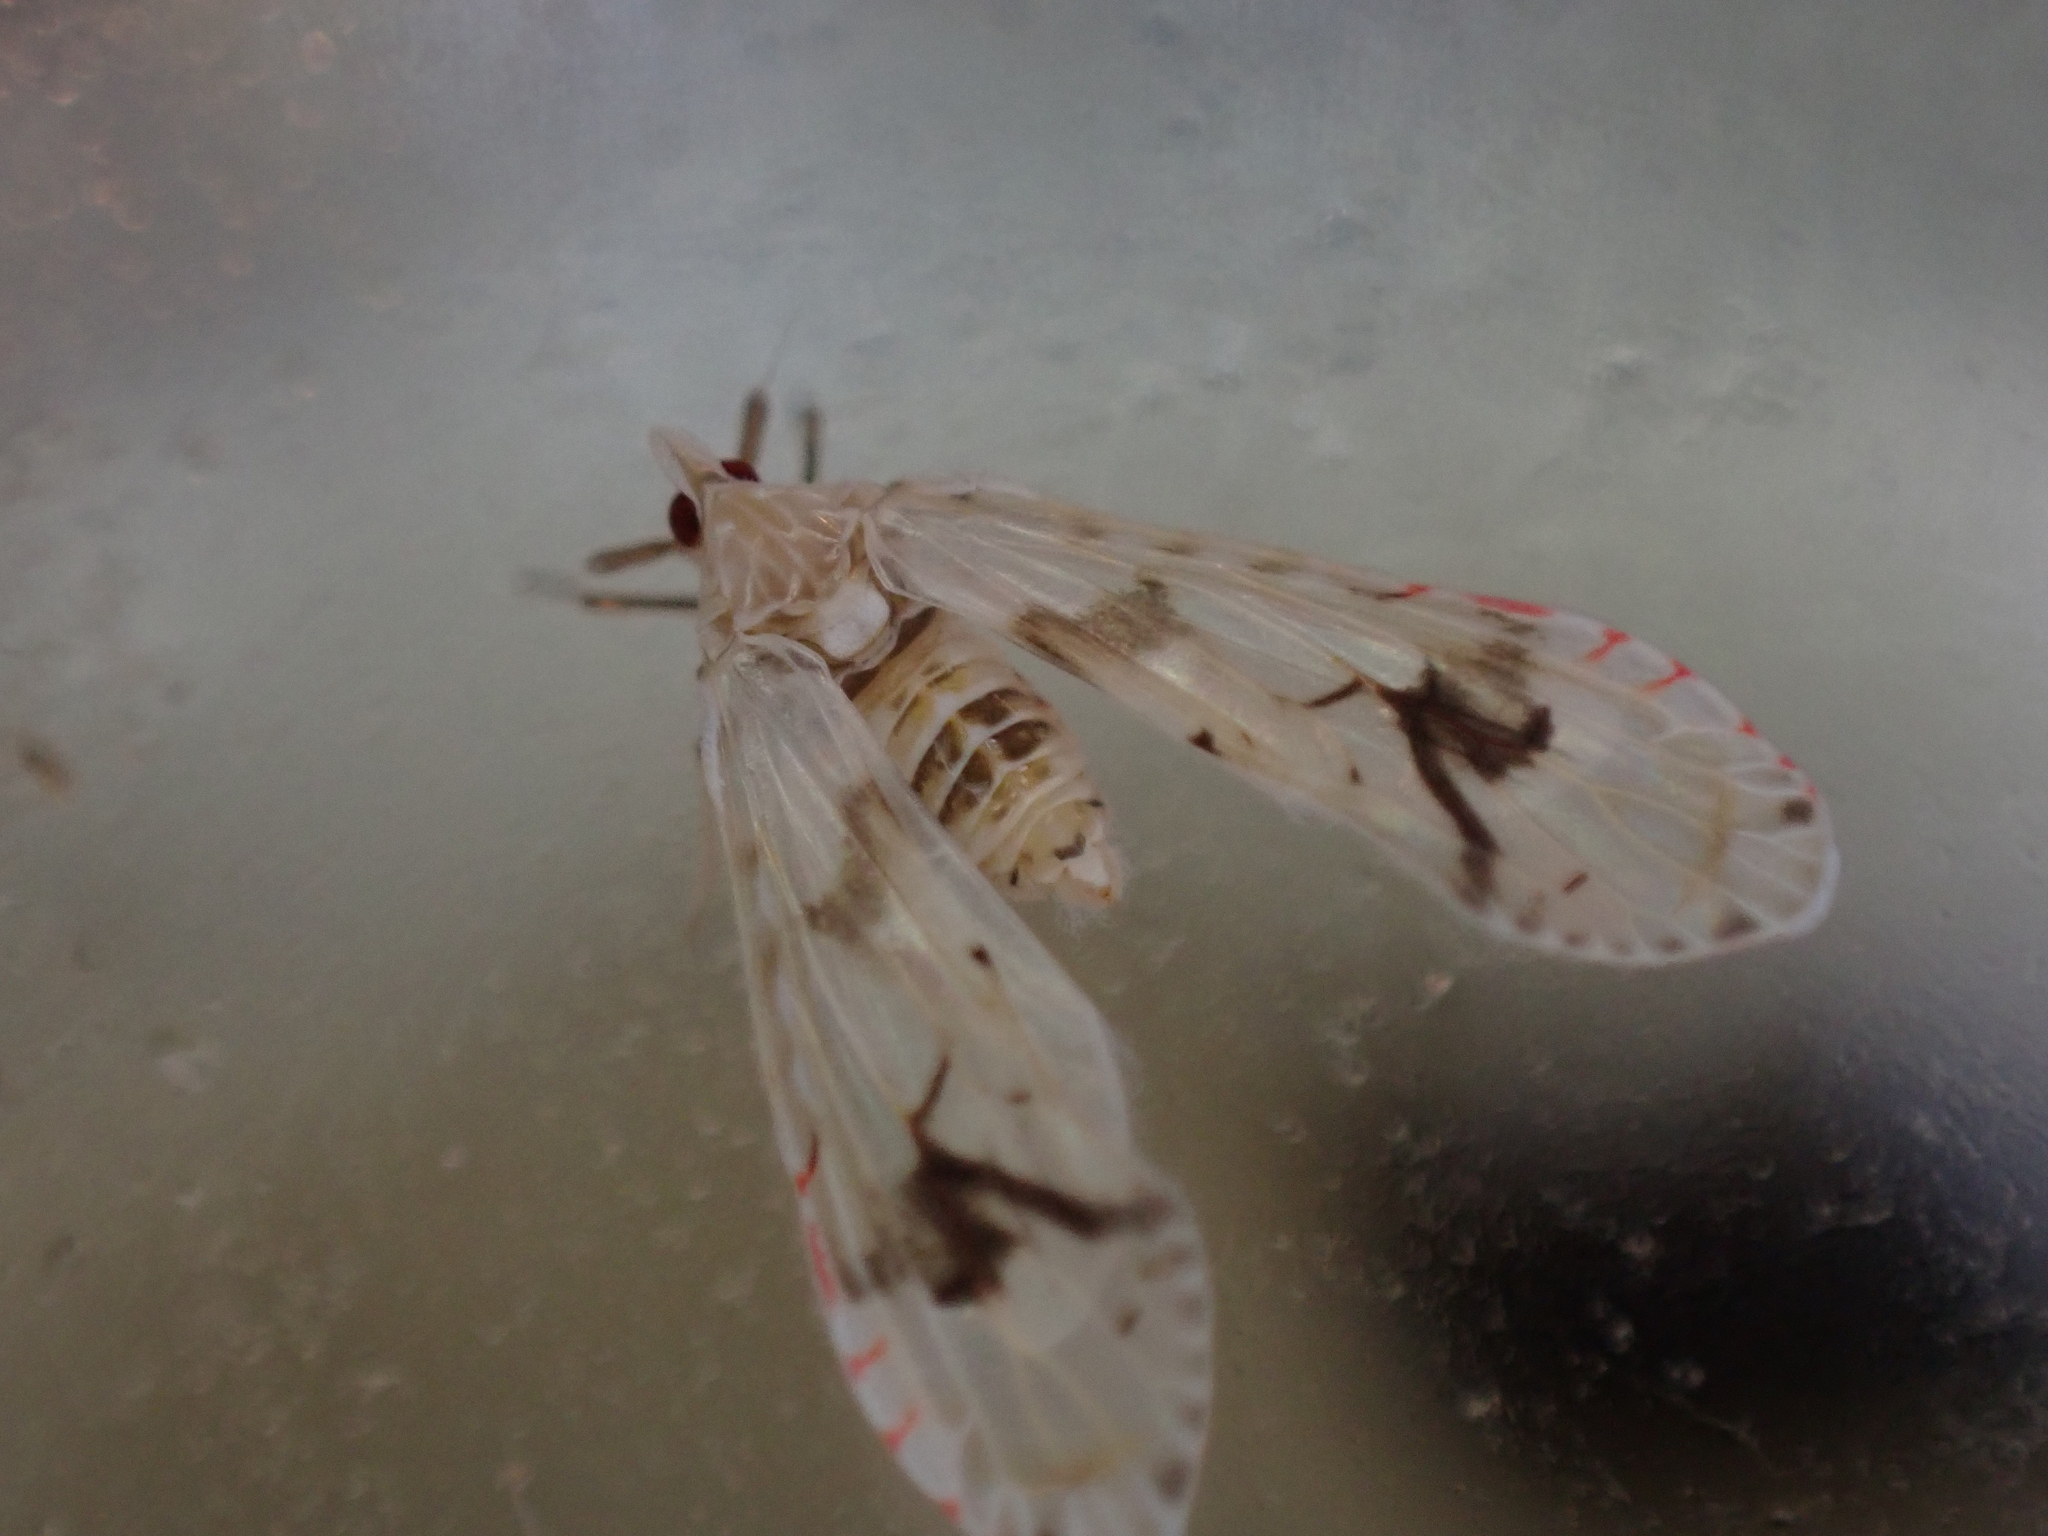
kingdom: Animalia
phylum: Arthropoda
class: Insecta
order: Hemiptera
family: Derbidae
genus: Anotia
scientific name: Anotia robertsonii
